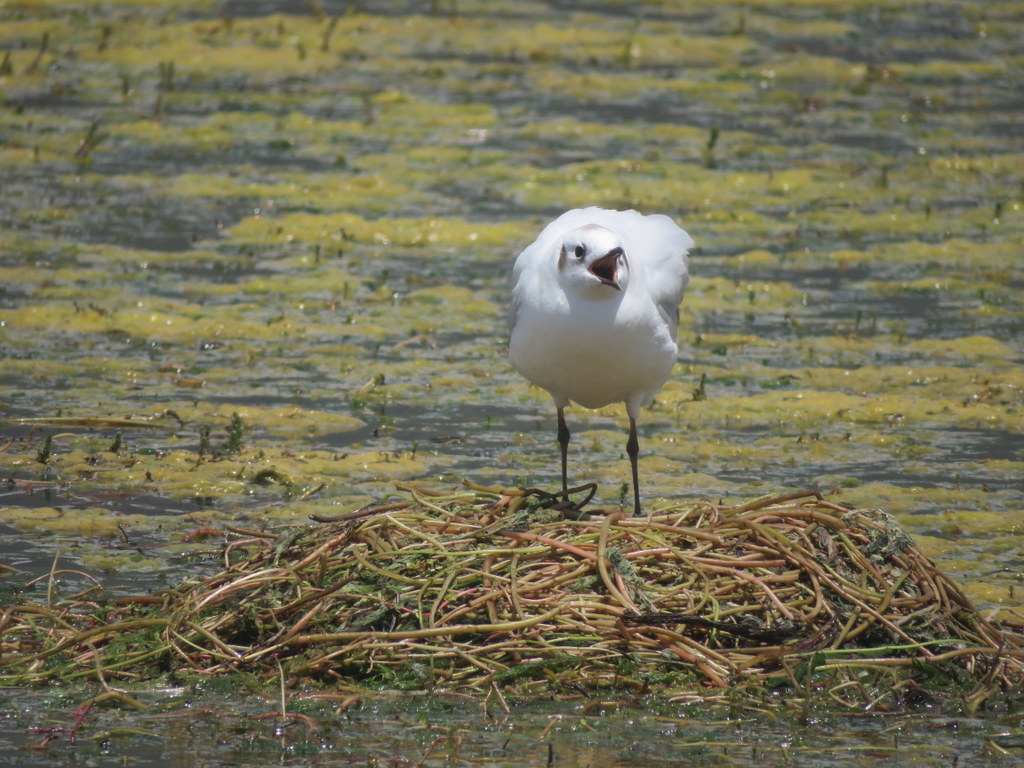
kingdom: Animalia
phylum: Chordata
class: Aves
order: Charadriiformes
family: Laridae
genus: Chroicocephalus
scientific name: Chroicocephalus serranus
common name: Andean gull
